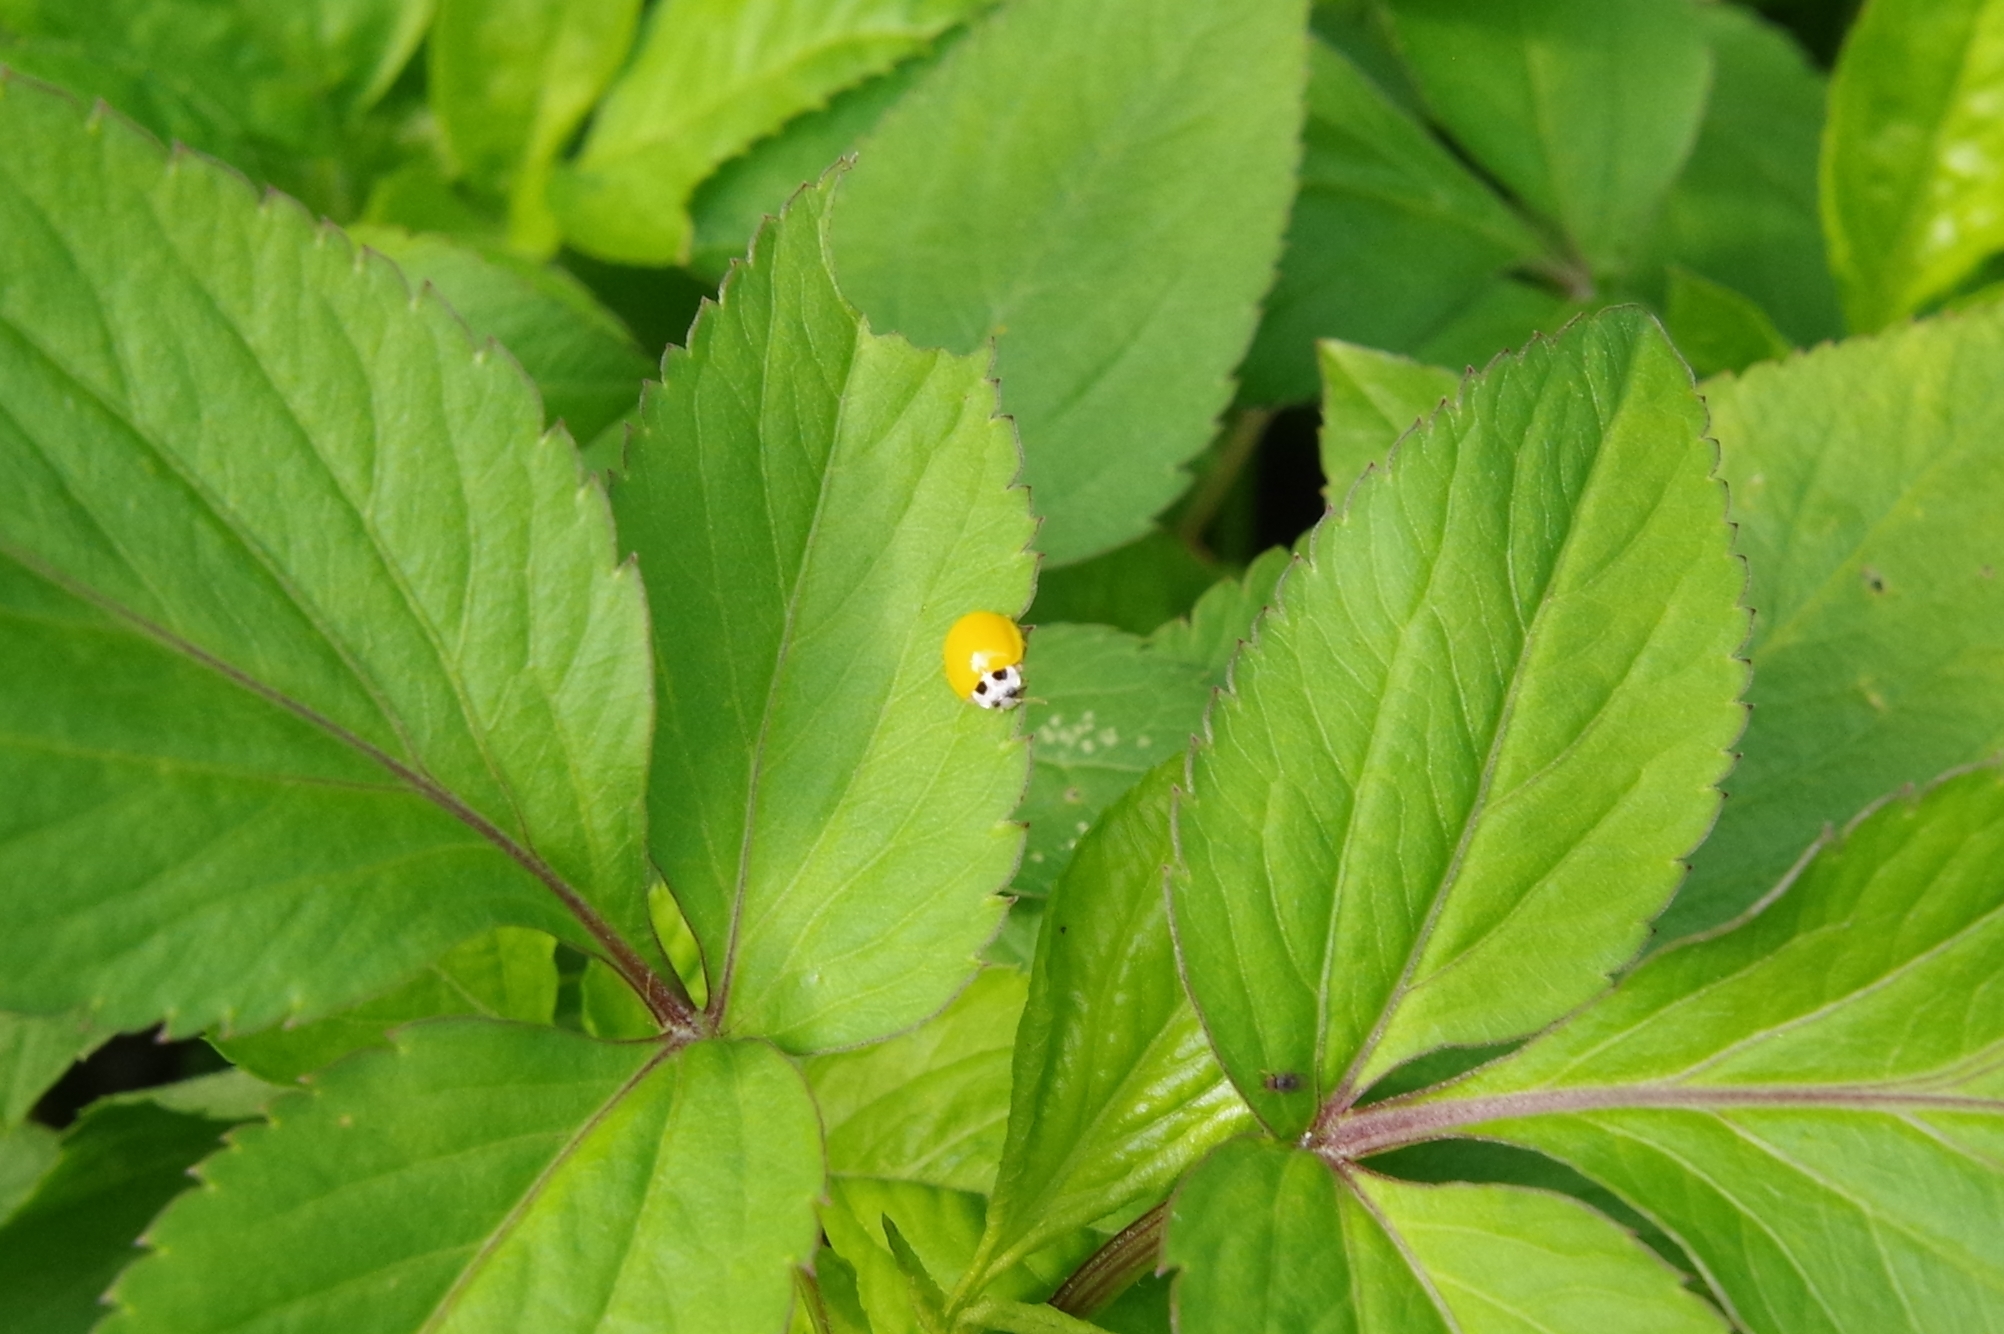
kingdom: Animalia
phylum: Arthropoda
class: Insecta
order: Coleoptera
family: Coccinellidae
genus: Illeis
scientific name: Illeis koebelei
